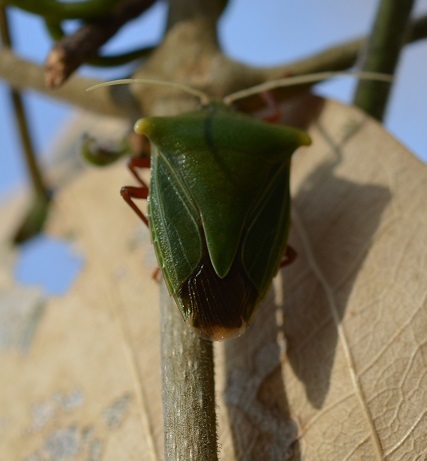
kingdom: Animalia
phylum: Arthropoda
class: Insecta
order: Hemiptera
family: Pentatomidae
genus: Edessa
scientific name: Edessa olivacea
